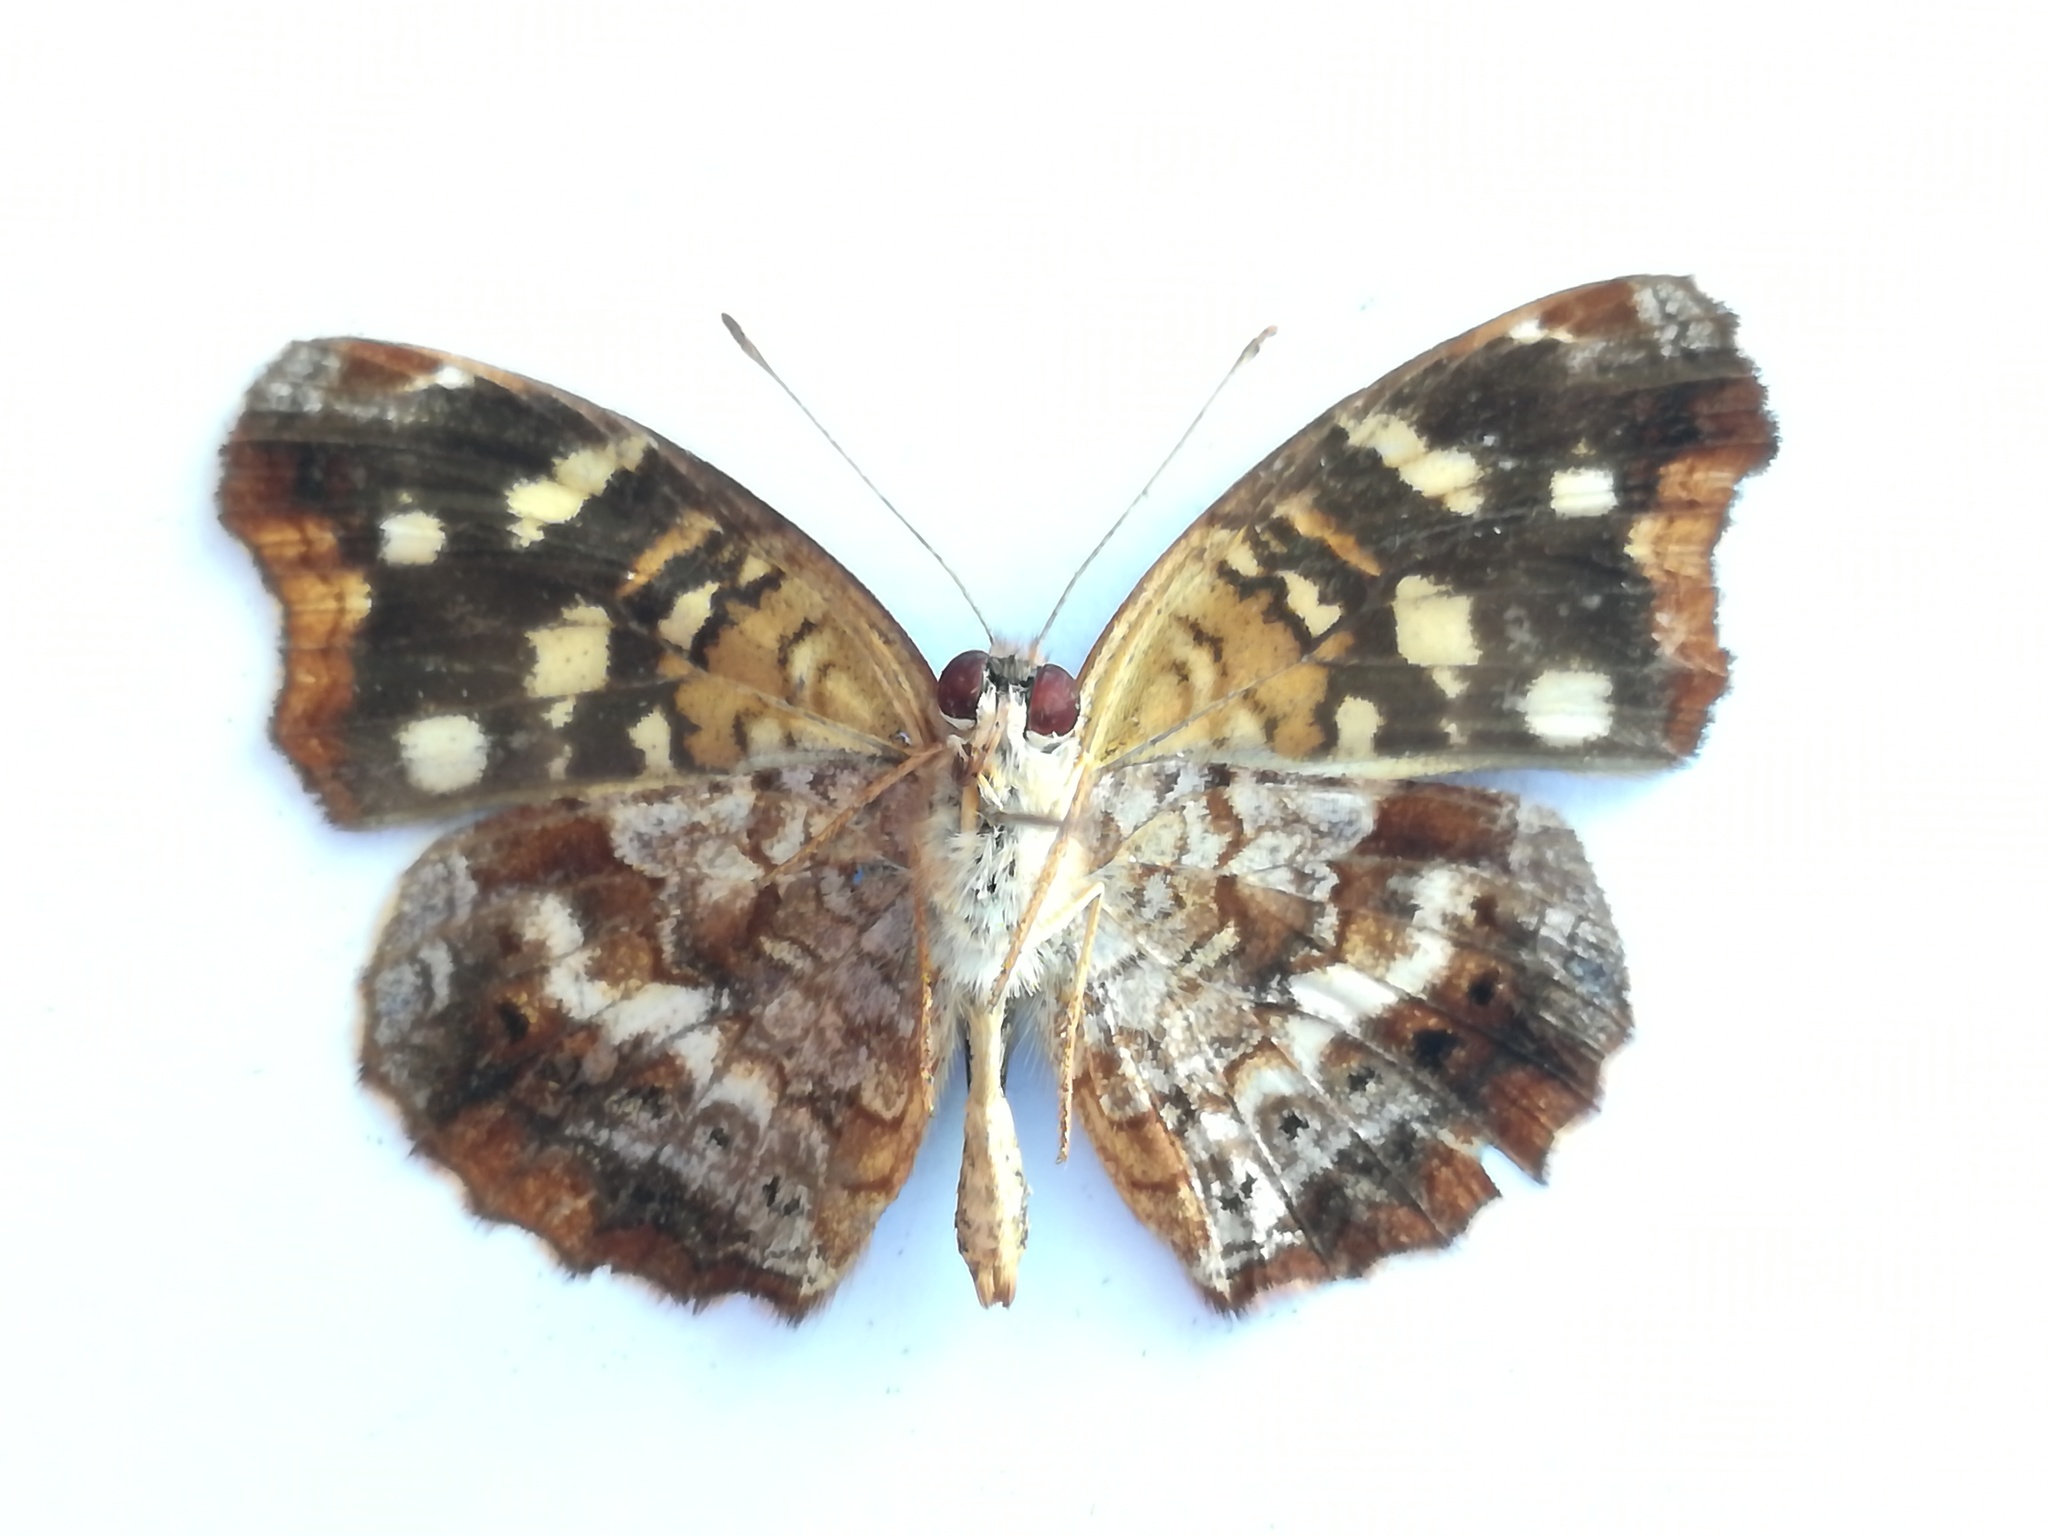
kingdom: Animalia
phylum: Arthropoda
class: Insecta
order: Lepidoptera
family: Nymphalidae
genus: Anthanassa
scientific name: Anthanassa ardys
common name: Ardys crescent
